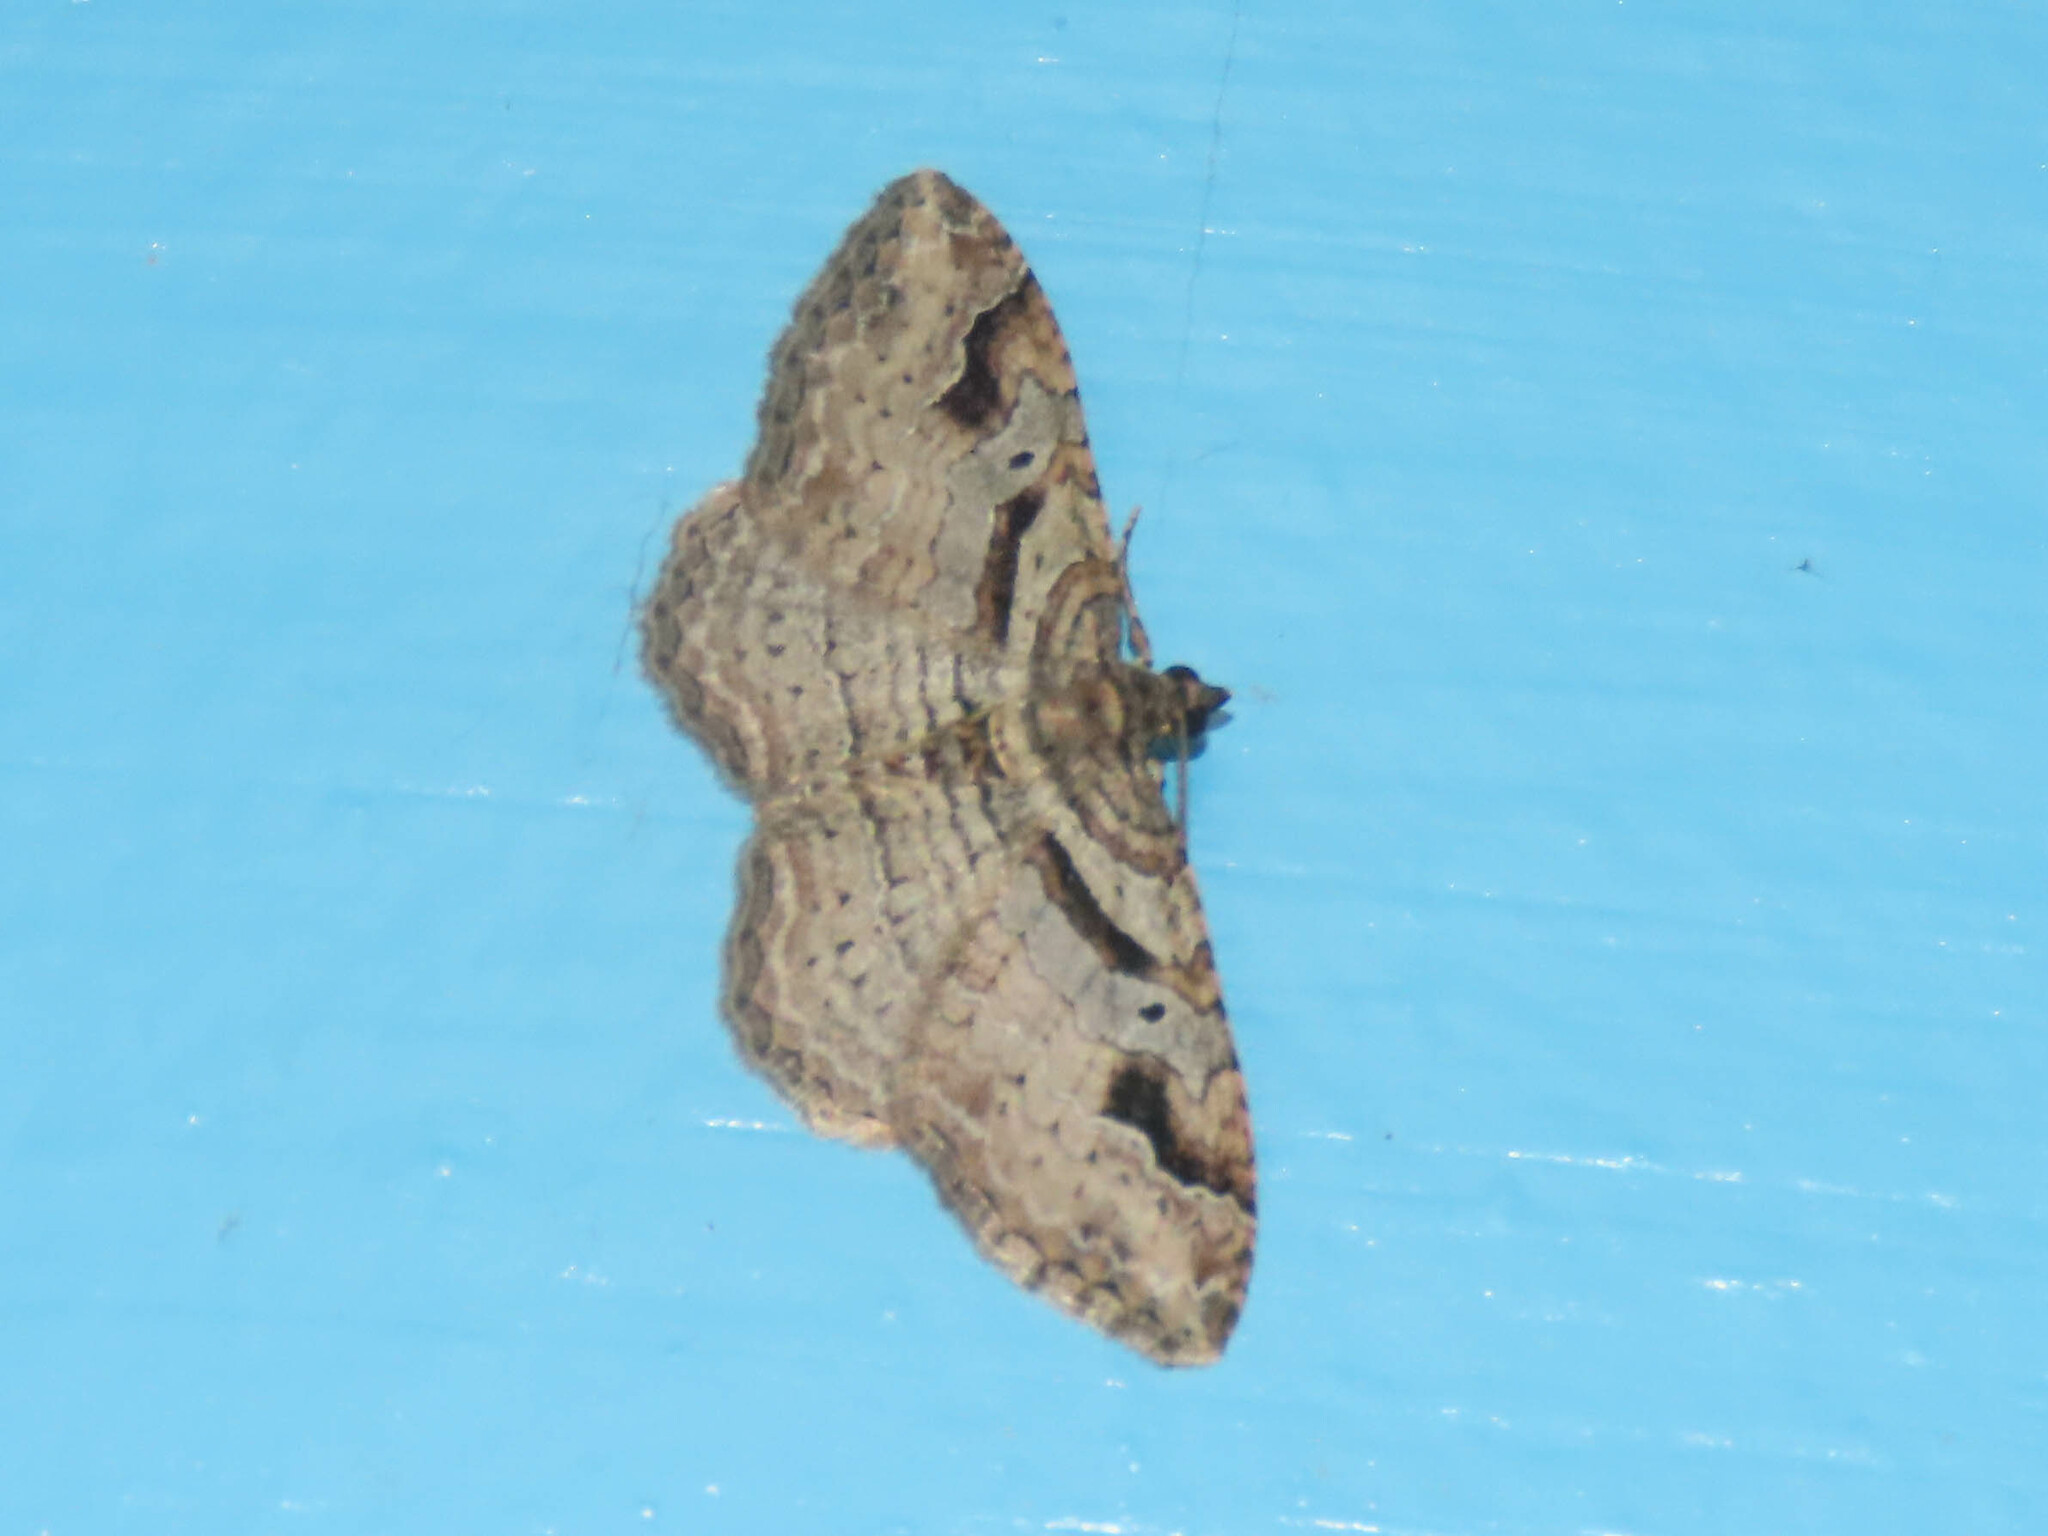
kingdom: Animalia
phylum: Arthropoda
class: Insecta
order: Lepidoptera
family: Geometridae
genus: Costaconvexa
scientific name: Costaconvexa centrostrigaria
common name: Bent-line carpet
